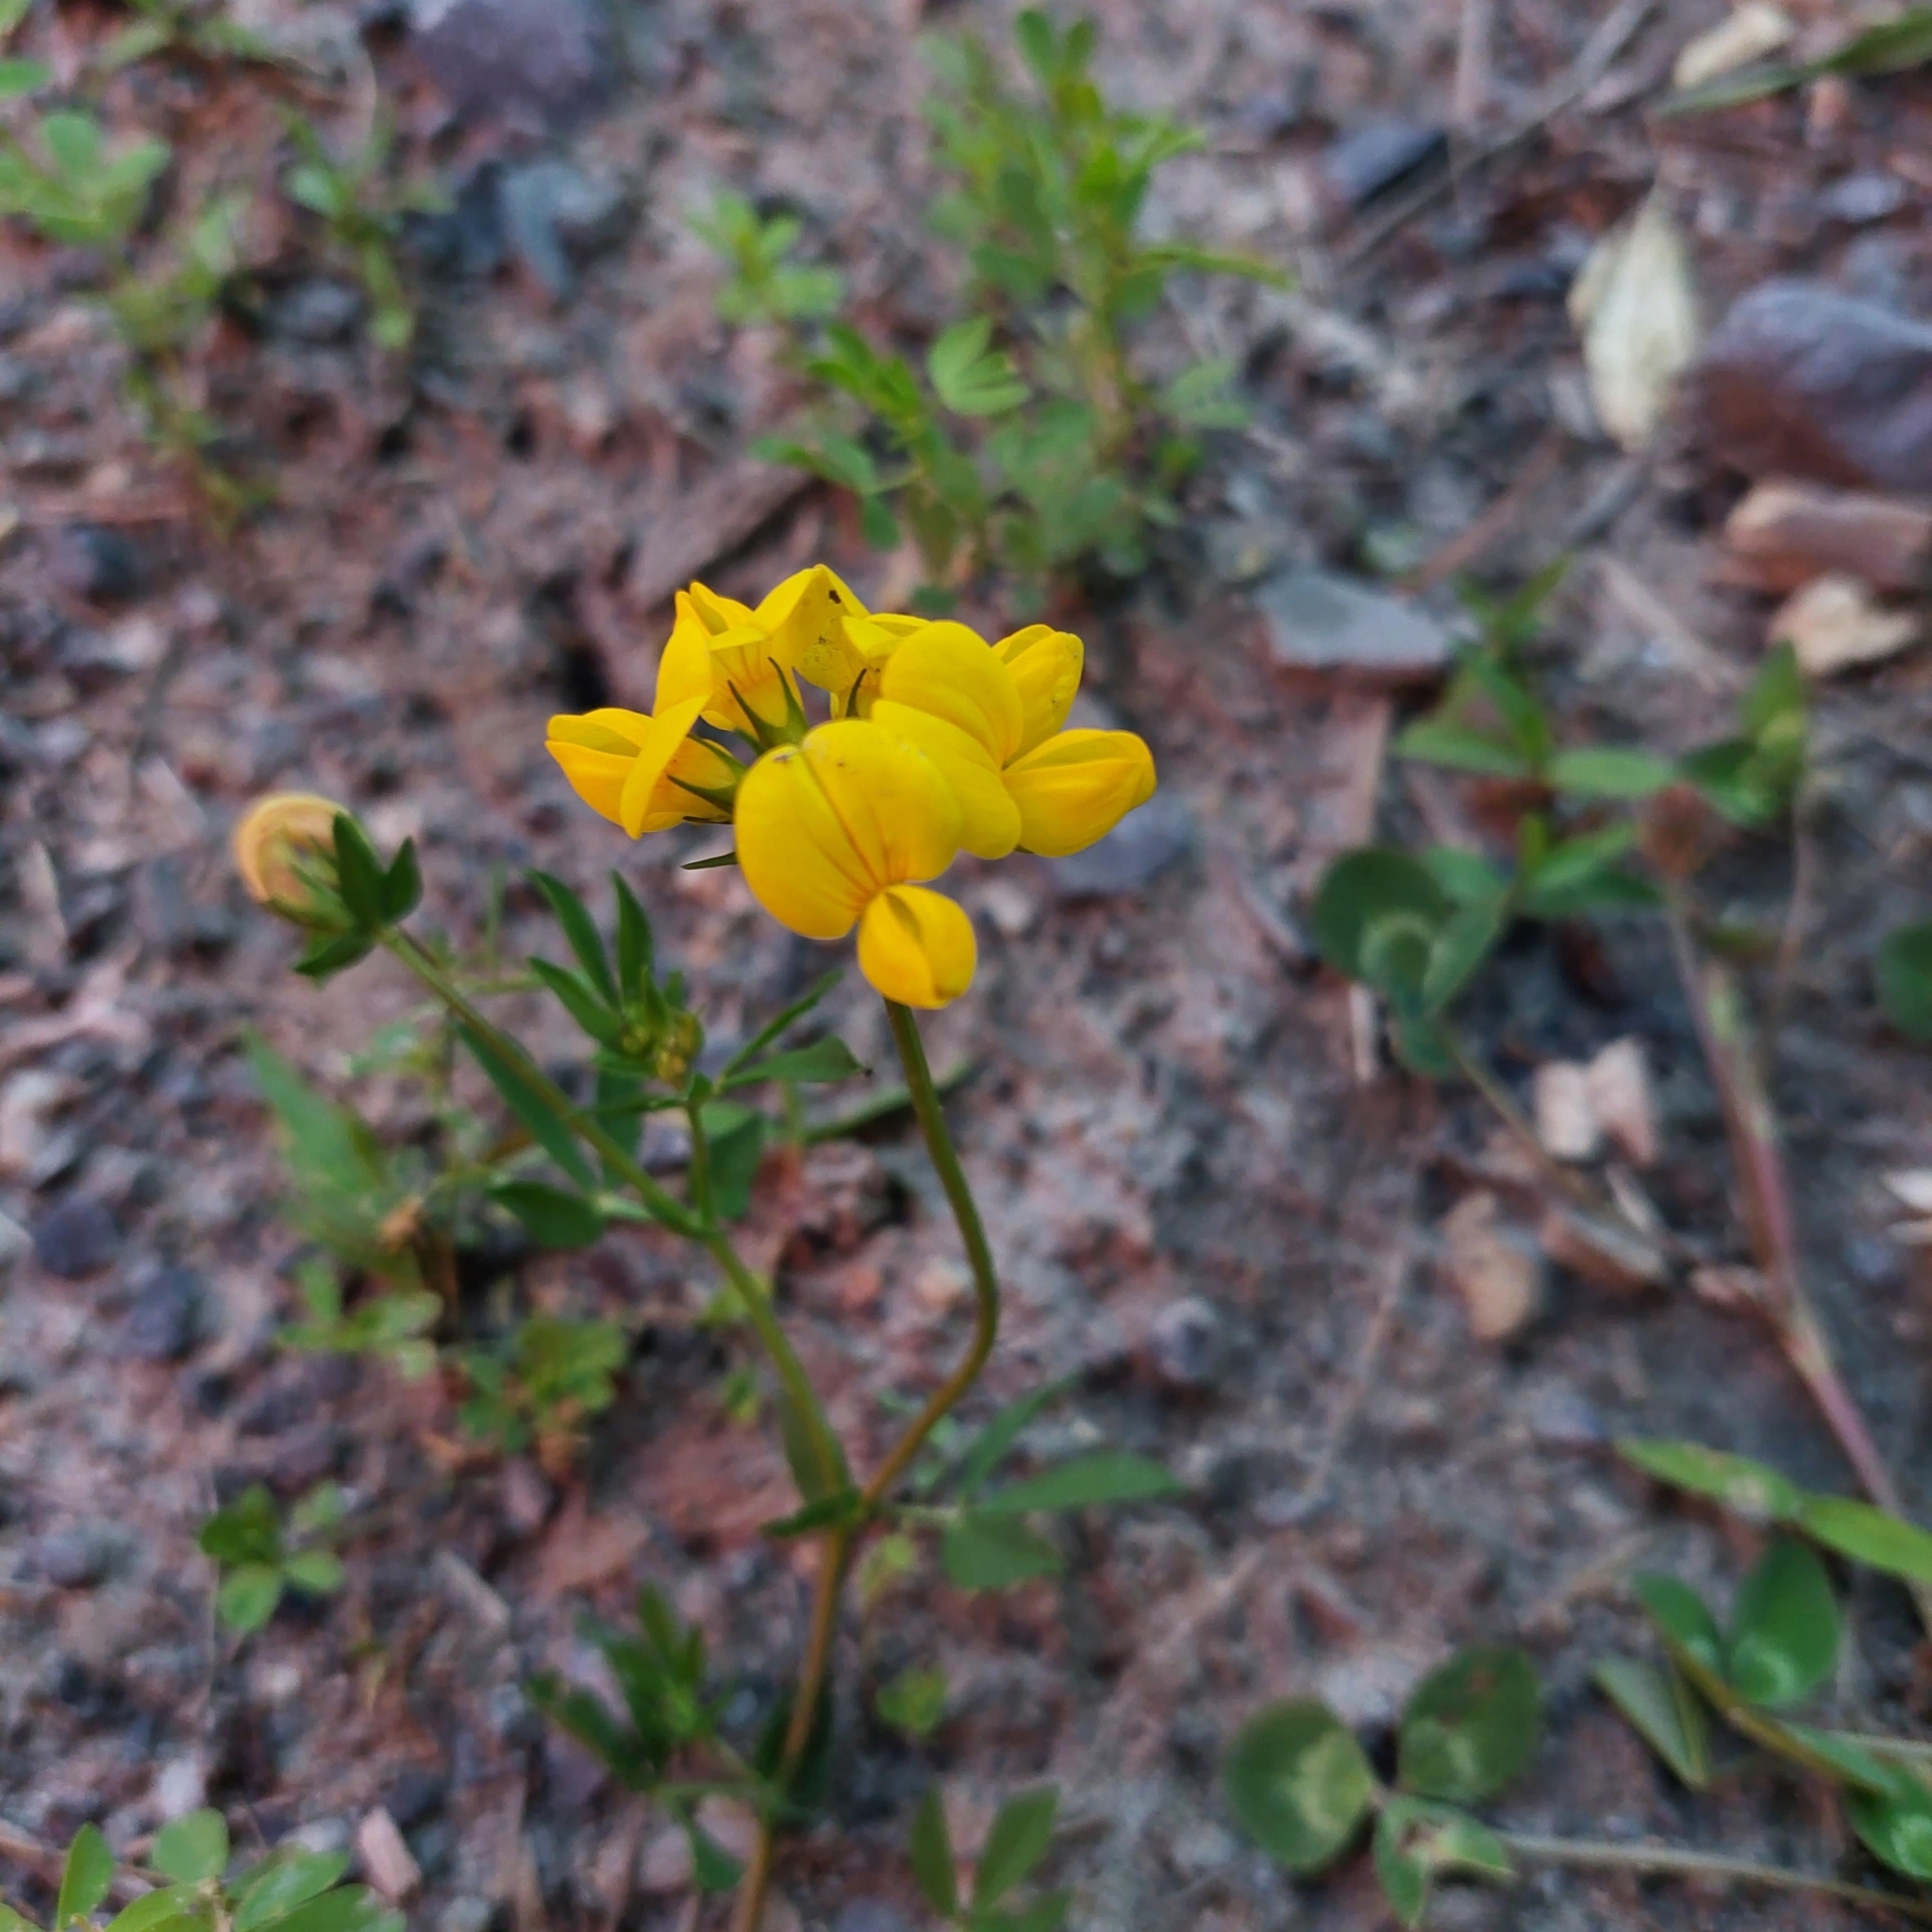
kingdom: Plantae
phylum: Tracheophyta
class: Magnoliopsida
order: Fabales
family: Fabaceae
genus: Lotus
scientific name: Lotus corniculatus
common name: Common bird's-foot-trefoil
